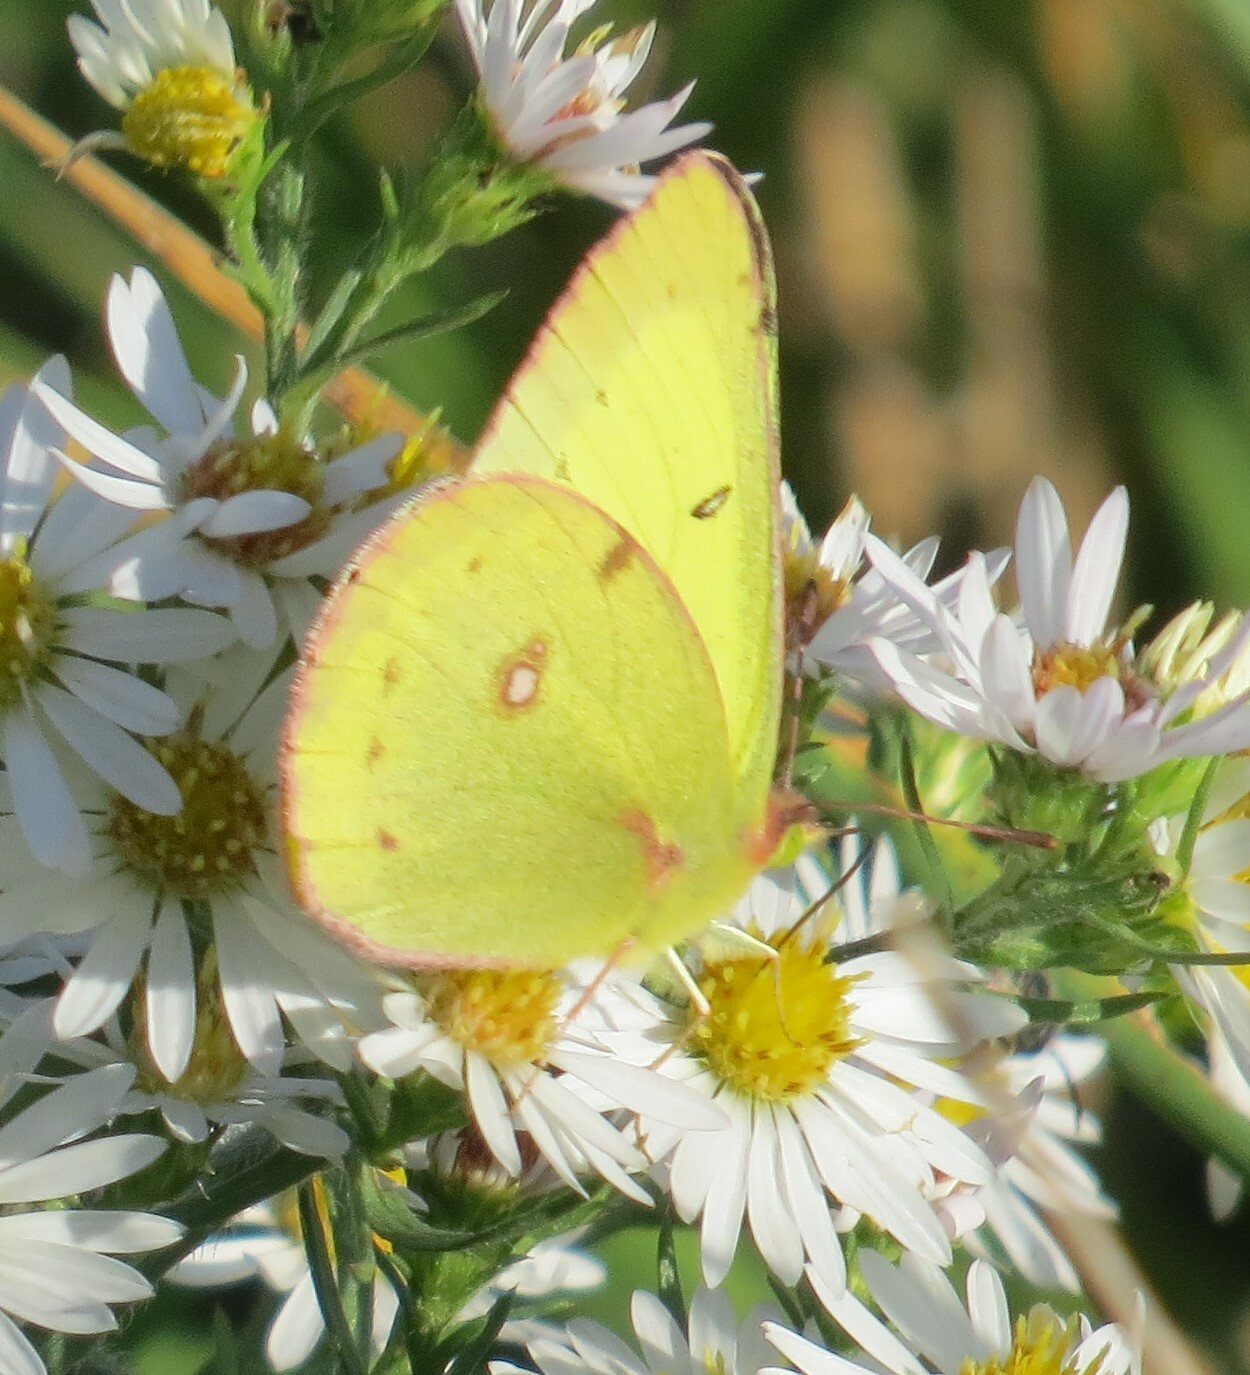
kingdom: Animalia
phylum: Arthropoda
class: Insecta
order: Lepidoptera
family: Pieridae
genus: Colias
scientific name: Colias philodice
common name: Clouded sulphur
